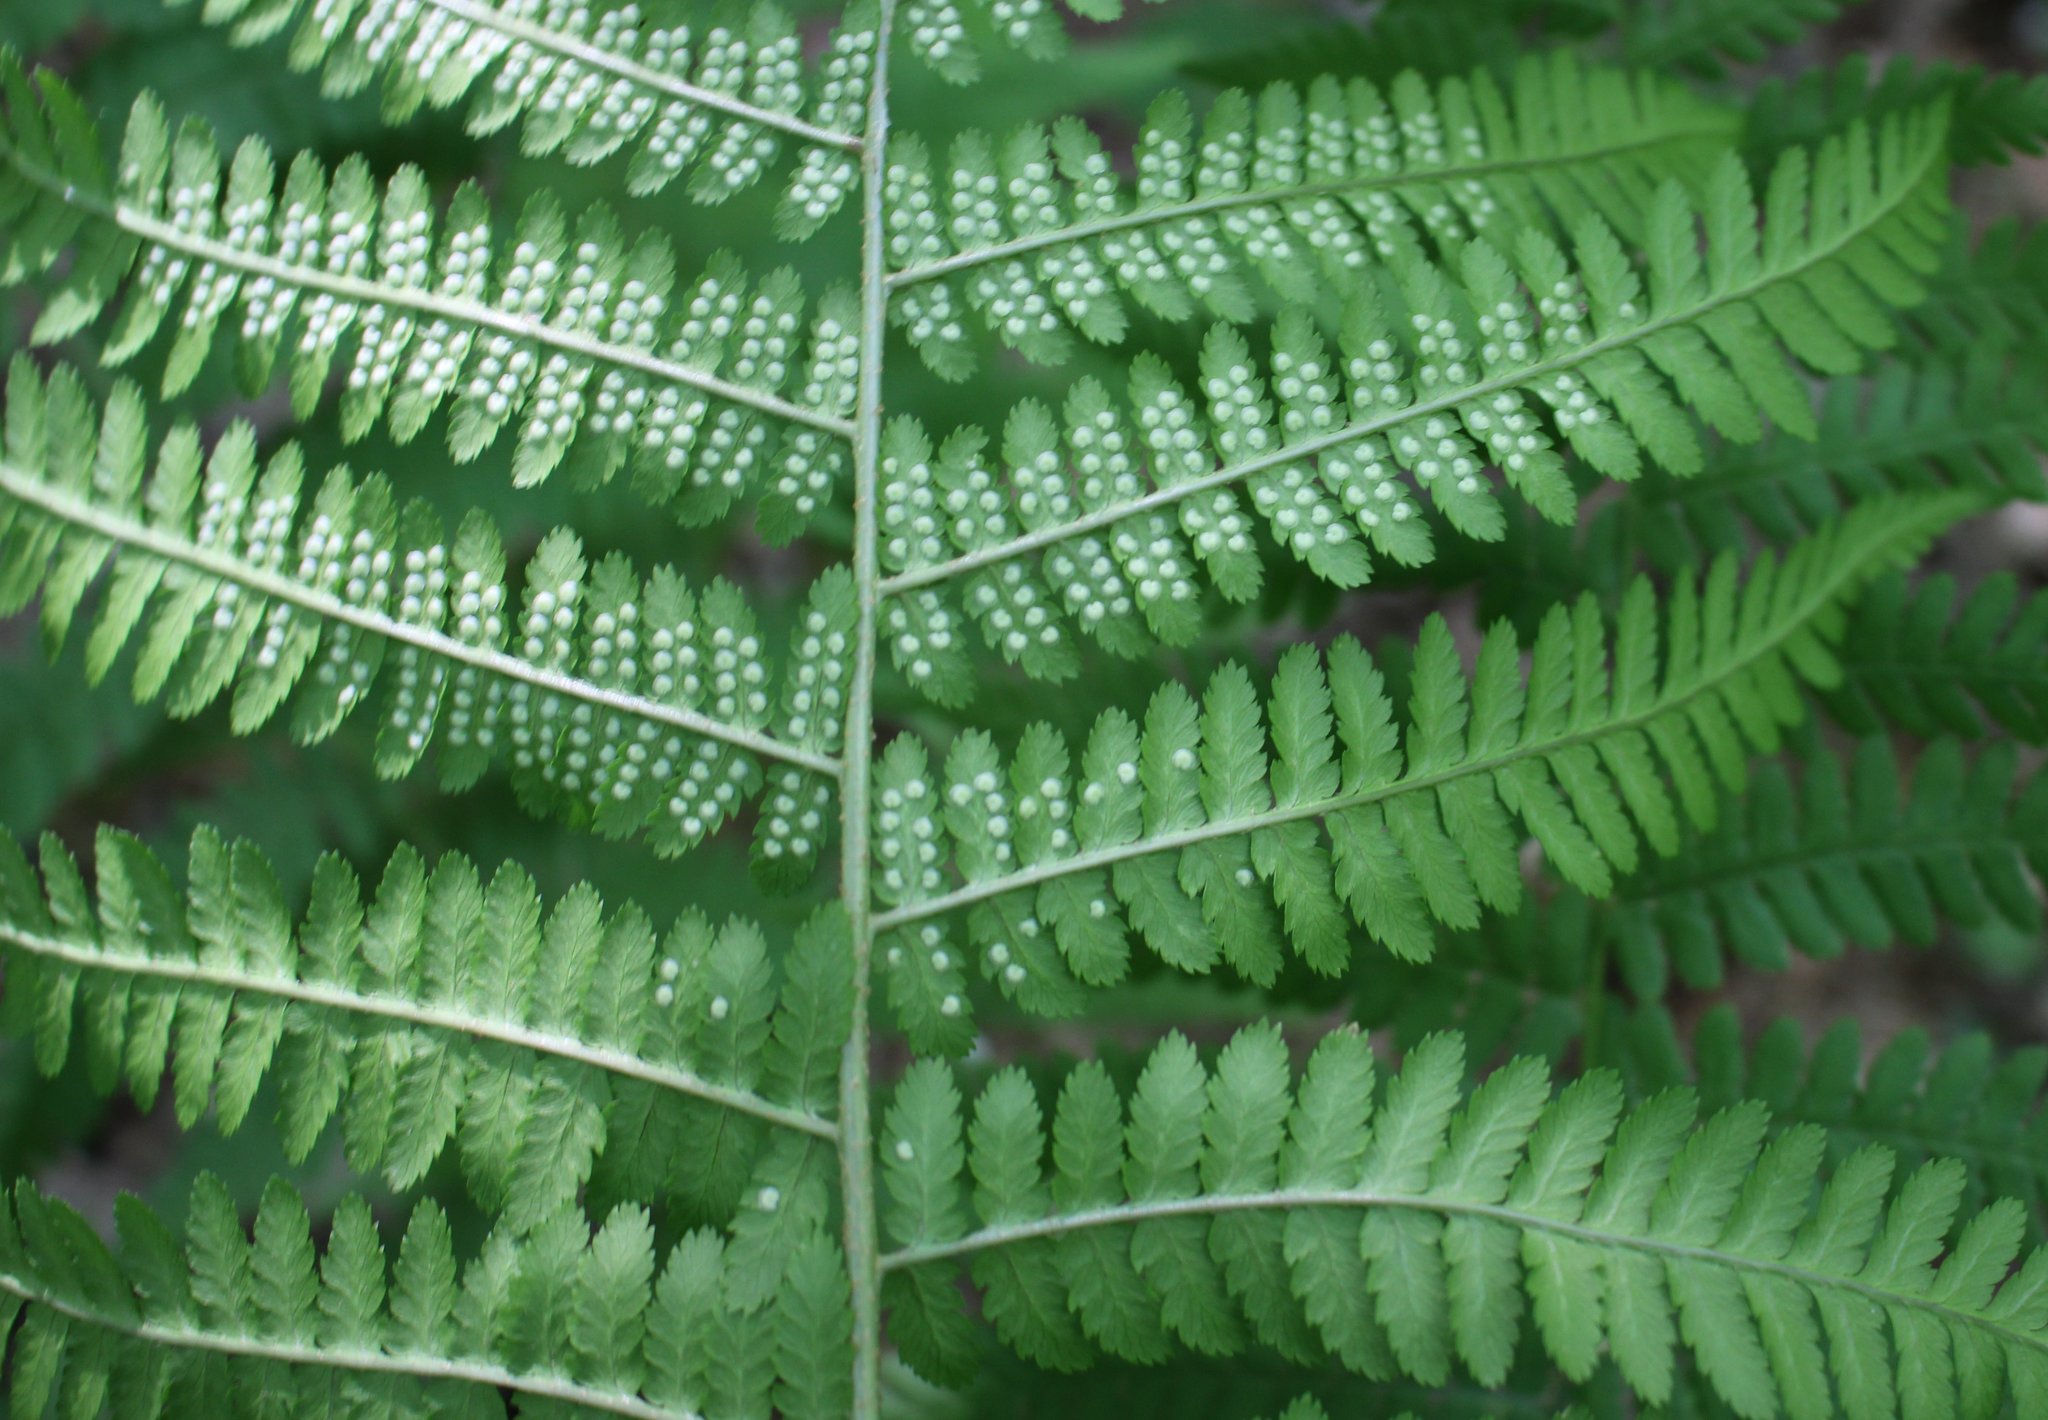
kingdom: Plantae
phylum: Tracheophyta
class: Polypodiopsida
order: Polypodiales
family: Athyriaceae
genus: Athyrium
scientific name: Athyrium filix-femina
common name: Lady fern
